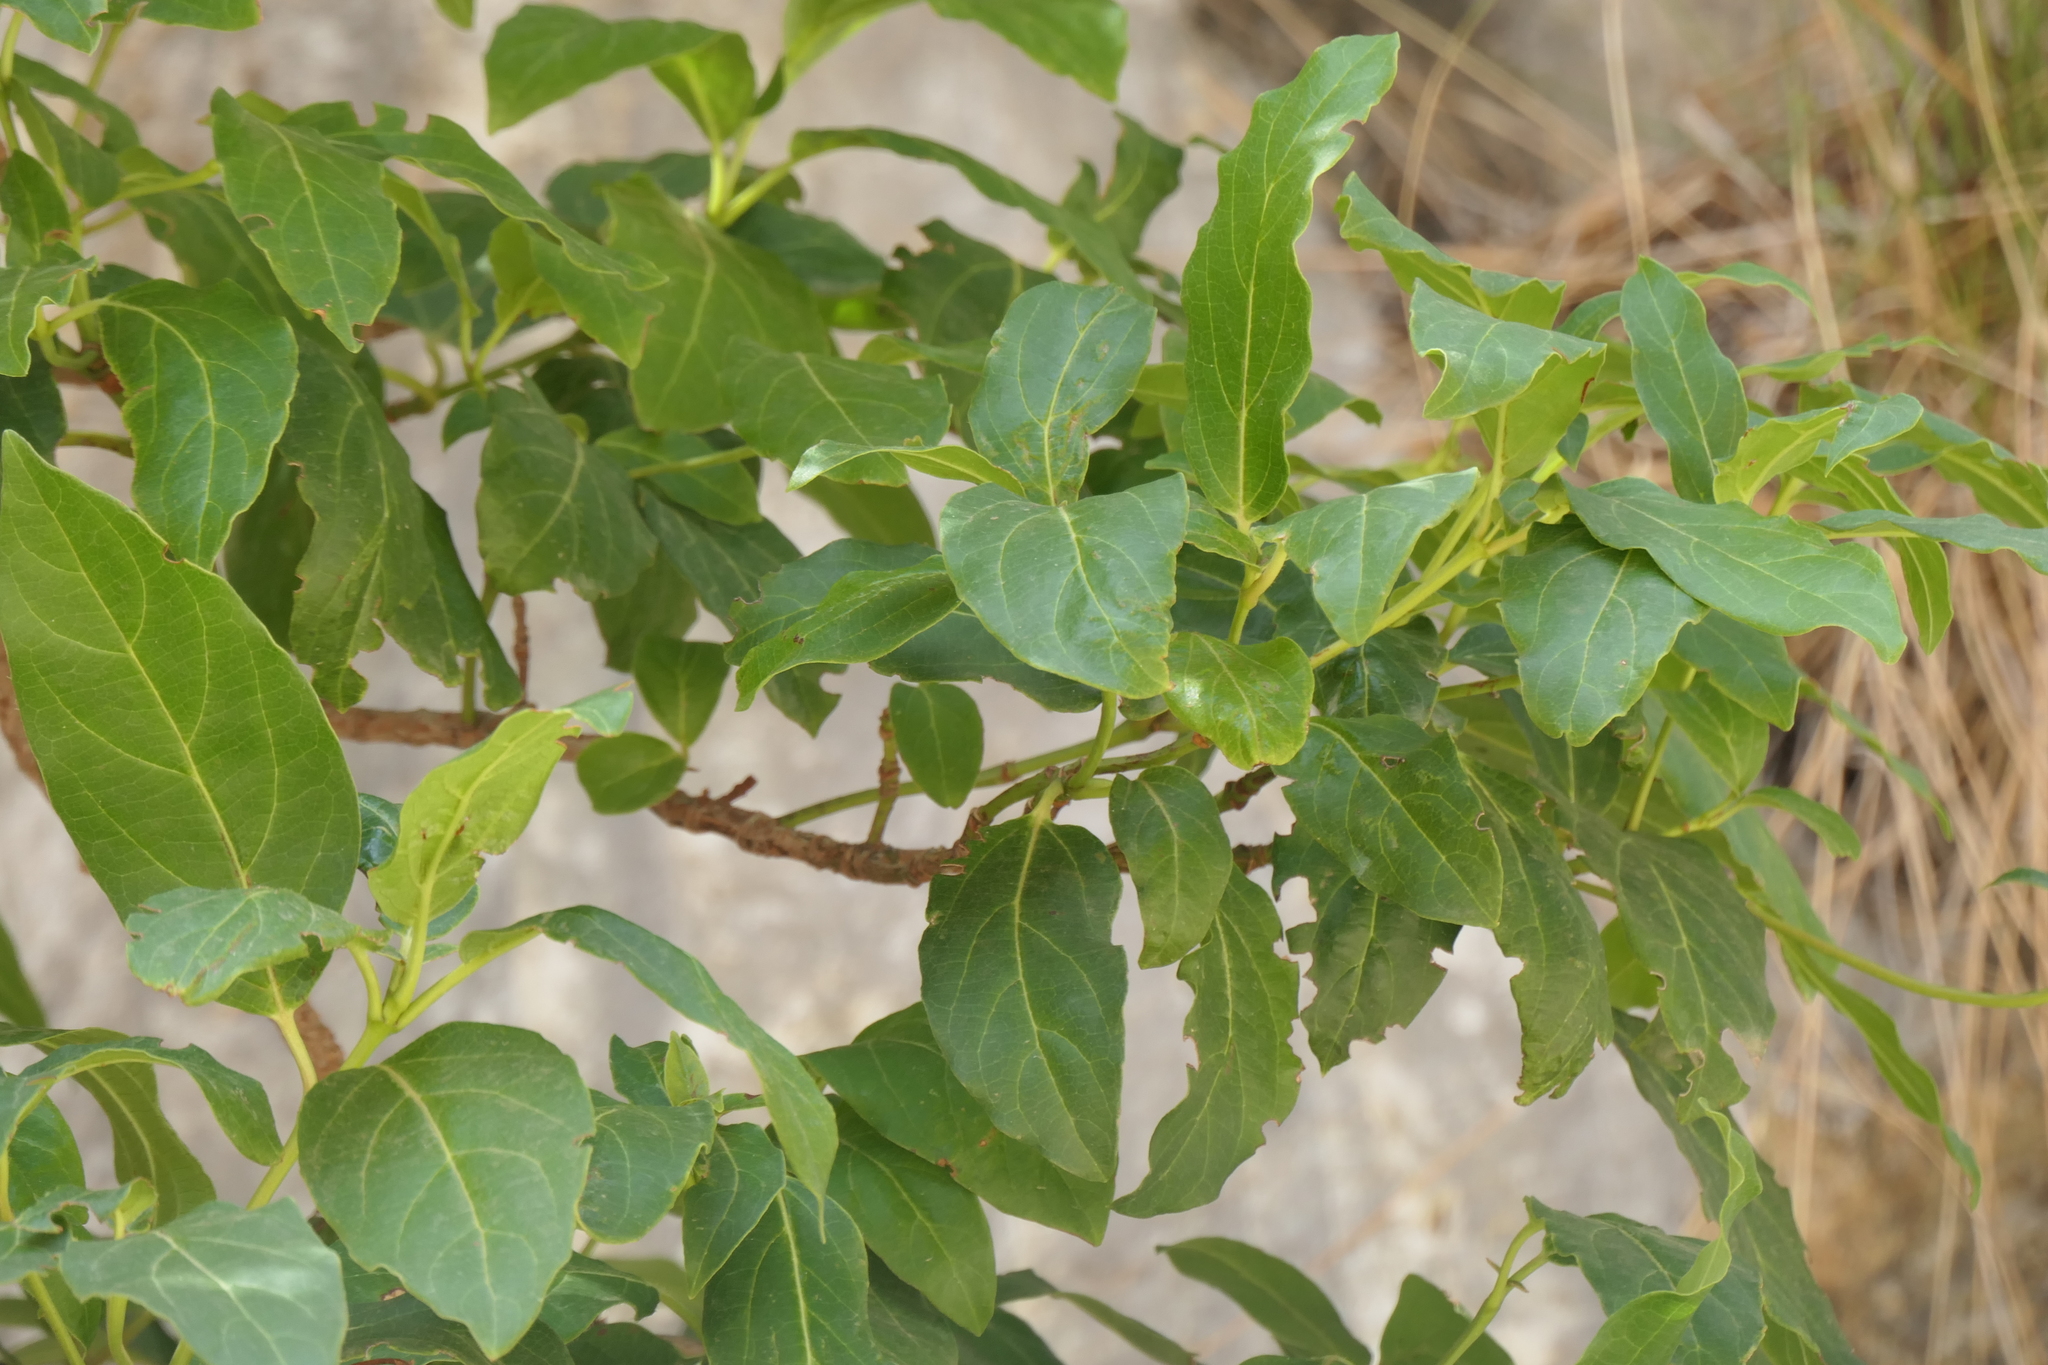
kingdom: Plantae
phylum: Tracheophyta
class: Magnoliopsida
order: Dipsacales
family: Viburnaceae
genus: Viburnum
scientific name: Viburnum tinus
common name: Laurustinus
